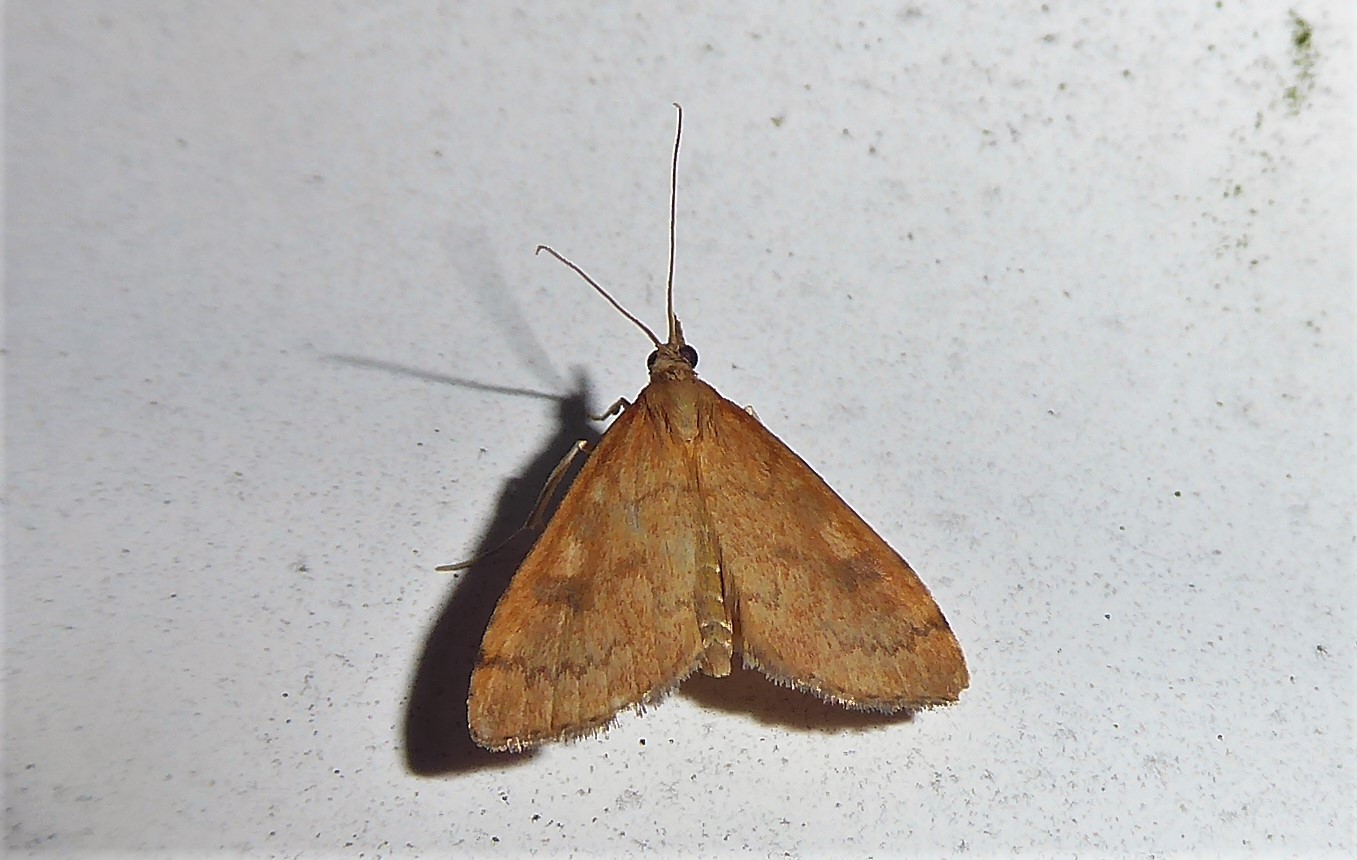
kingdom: Animalia
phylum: Arthropoda
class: Insecta
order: Lepidoptera
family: Crambidae
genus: Udea
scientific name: Udea Mnesictena flavidalis
